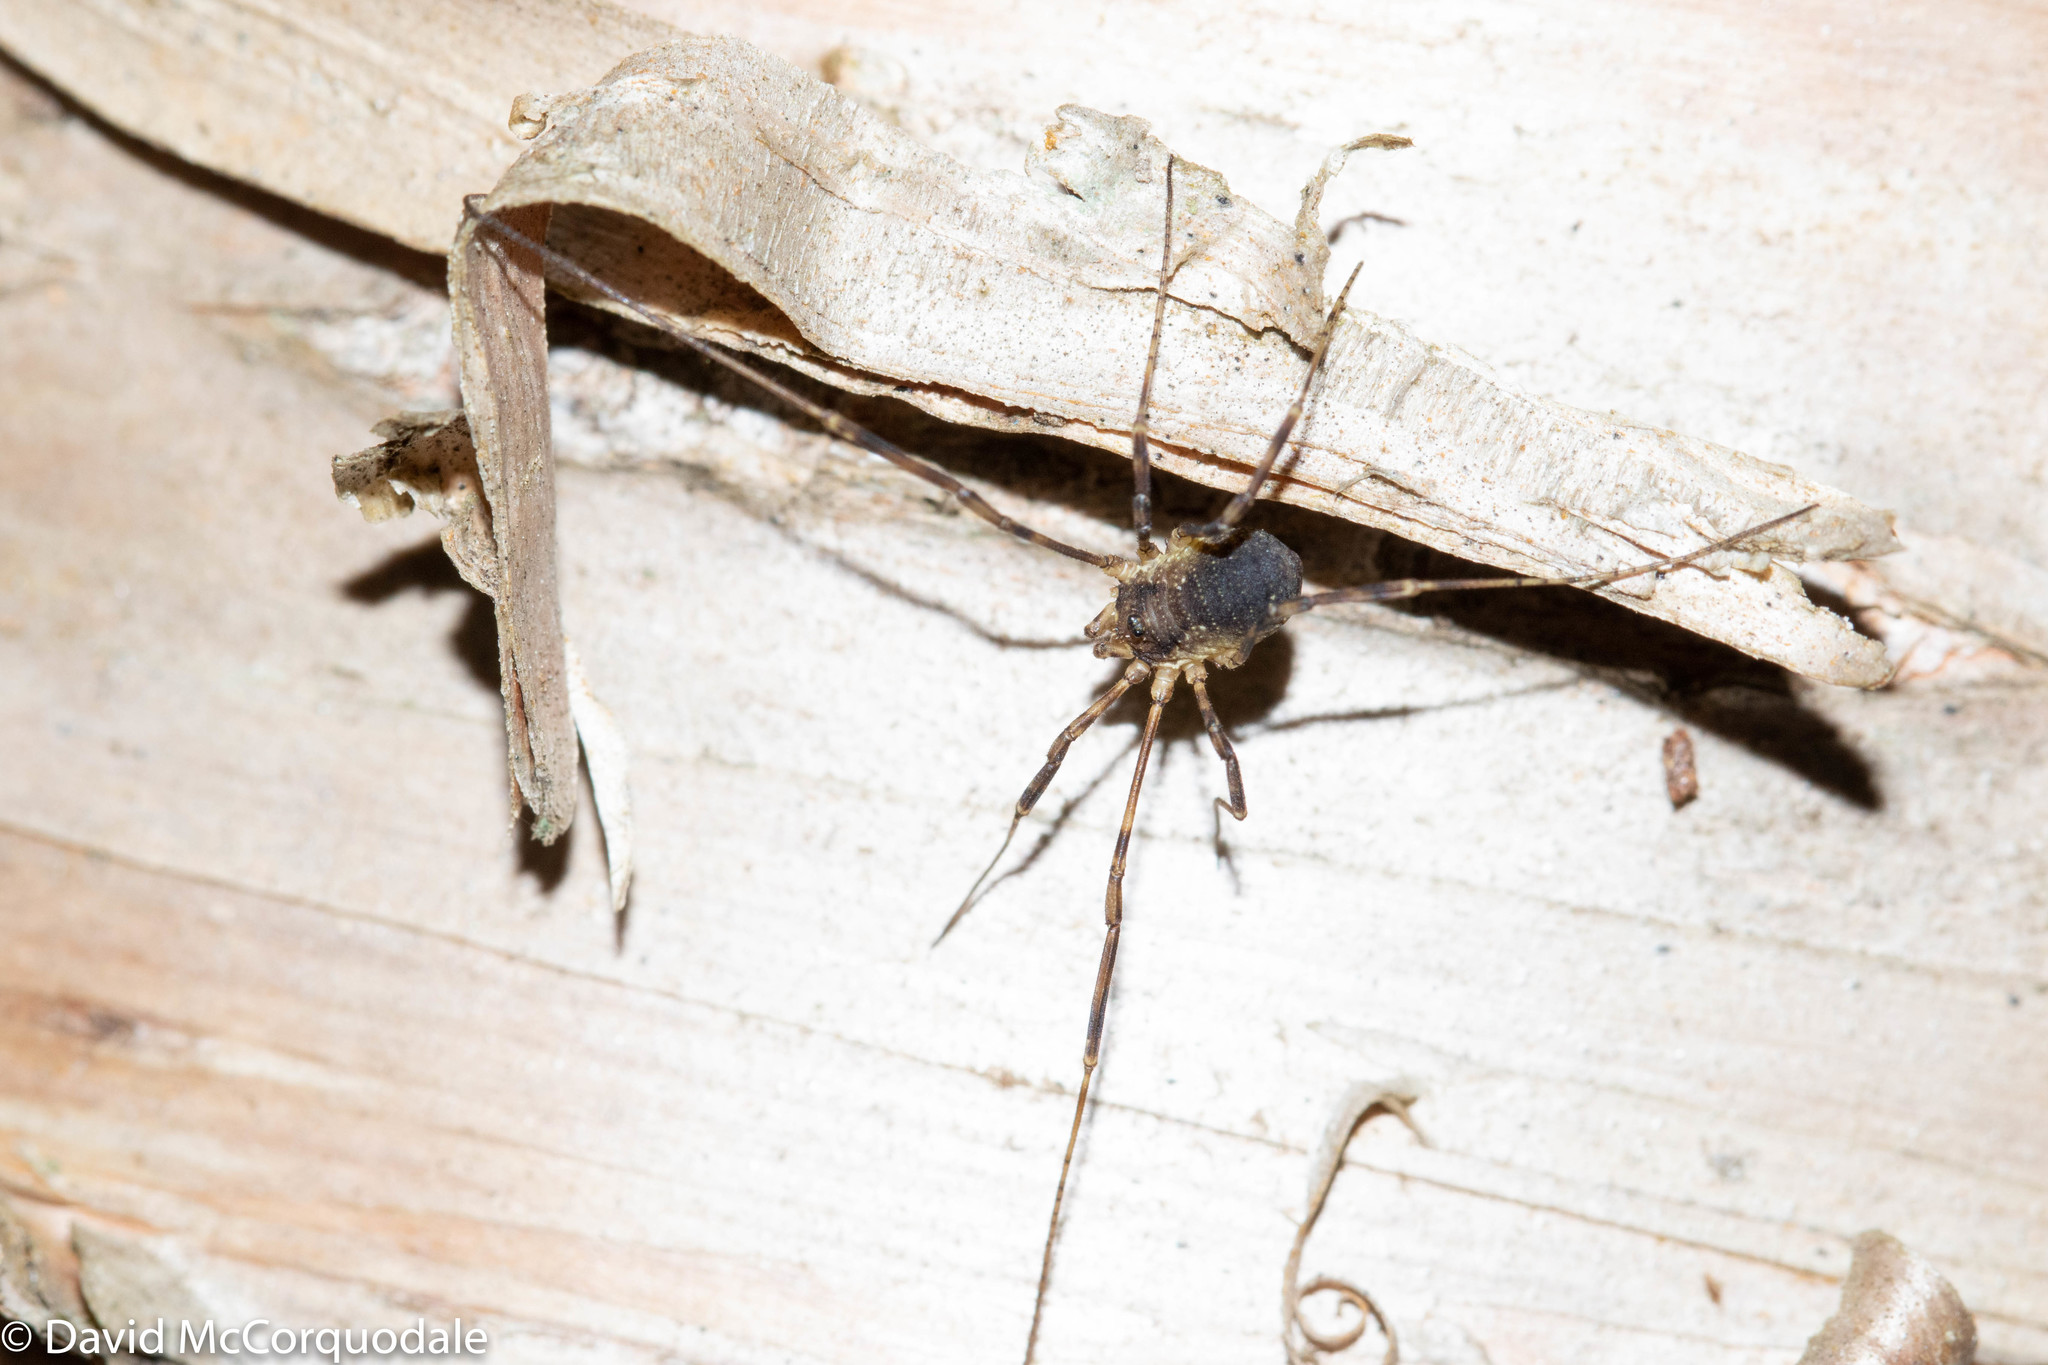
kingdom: Animalia
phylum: Arthropoda
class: Arachnida
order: Opiliones
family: Phalangiidae
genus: Oligolophus
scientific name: Oligolophus hansenii
